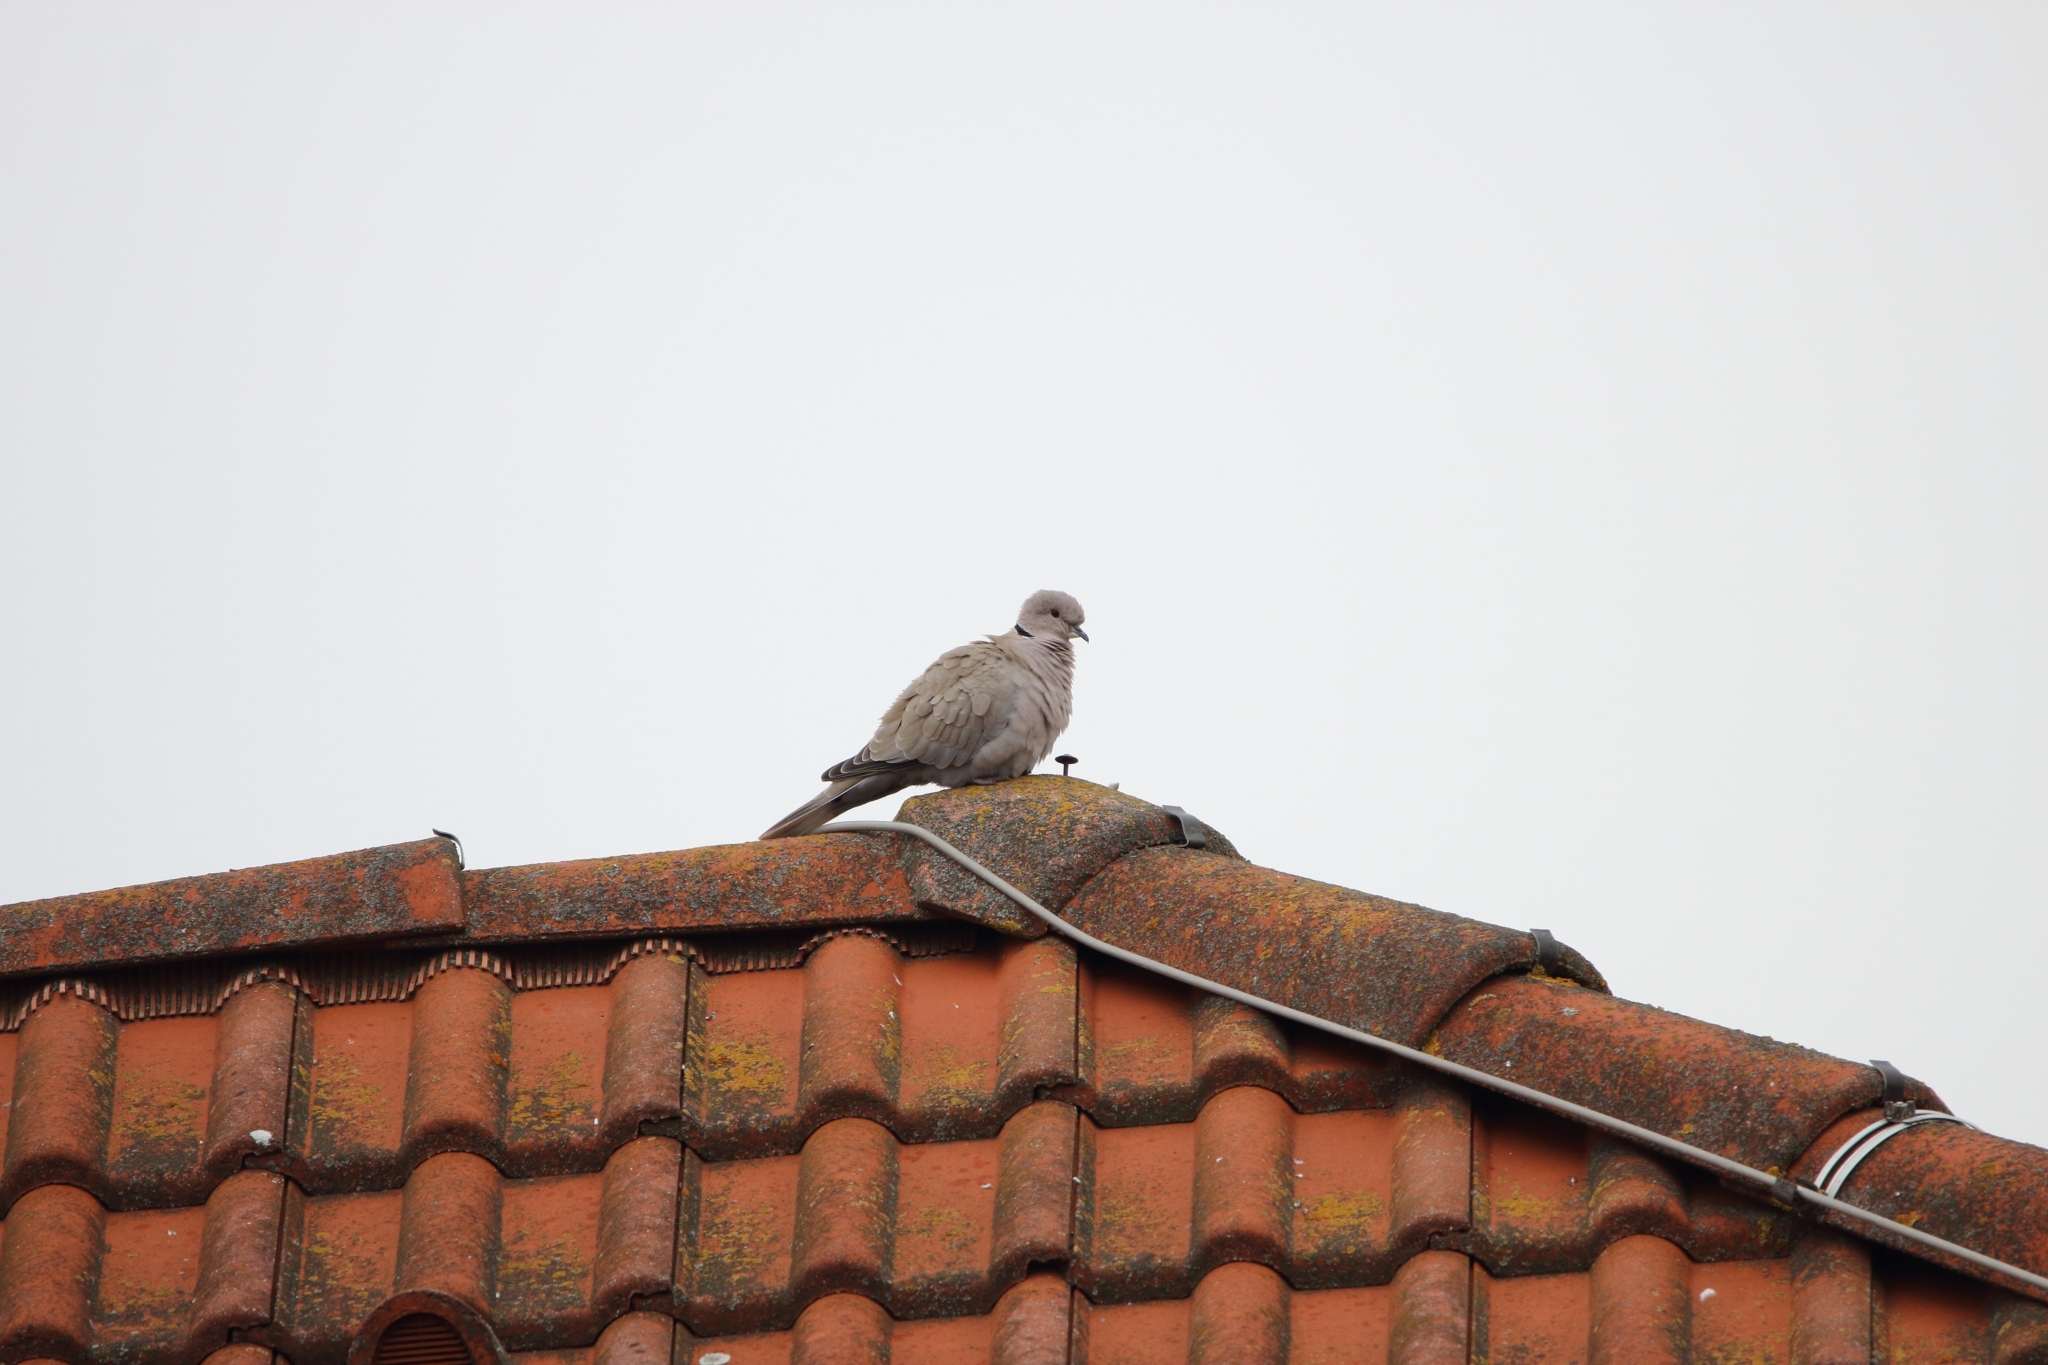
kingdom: Animalia
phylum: Chordata
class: Aves
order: Columbiformes
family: Columbidae
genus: Streptopelia
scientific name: Streptopelia decaocto
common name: Eurasian collared dove
